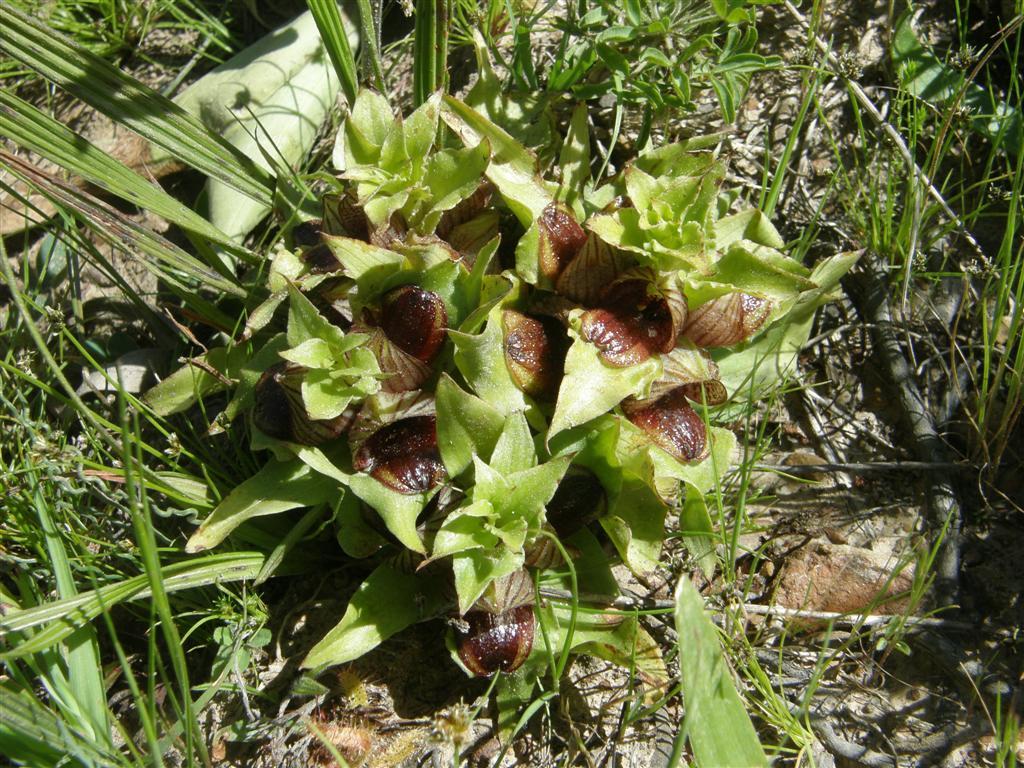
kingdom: Plantae
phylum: Tracheophyta
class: Liliopsida
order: Asparagales
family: Orchidaceae
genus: Satyrium
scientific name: Satyrium pumilum
